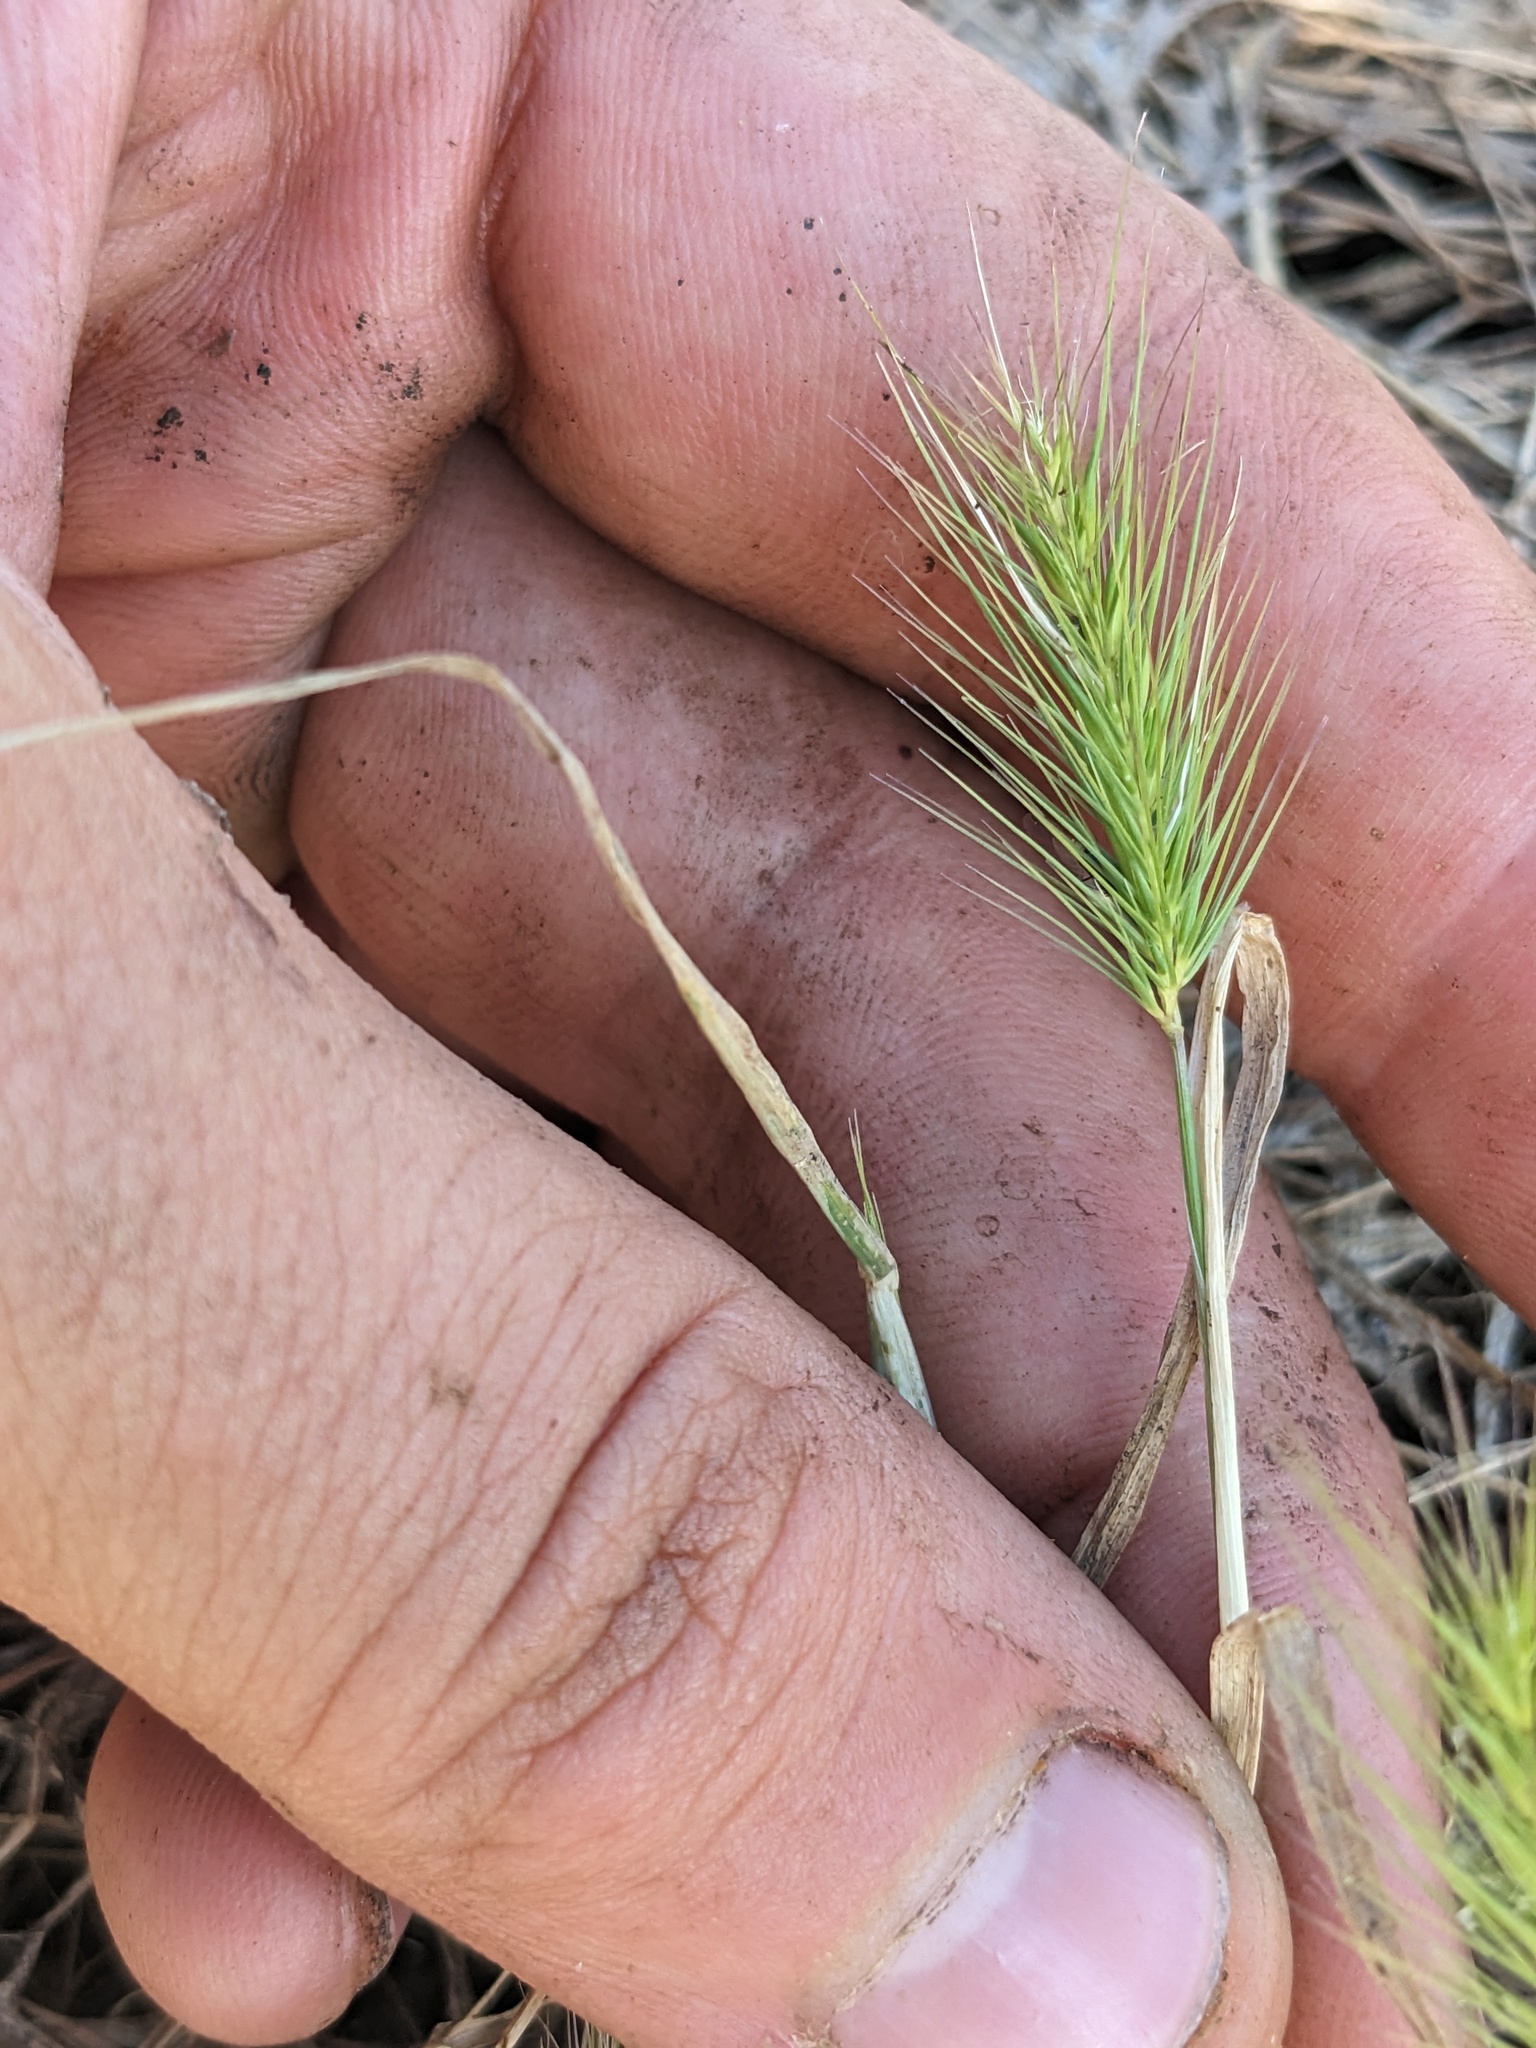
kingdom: Plantae
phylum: Tracheophyta
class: Liliopsida
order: Poales
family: Poaceae
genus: Hordeum
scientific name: Hordeum marinum
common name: Sea barley
